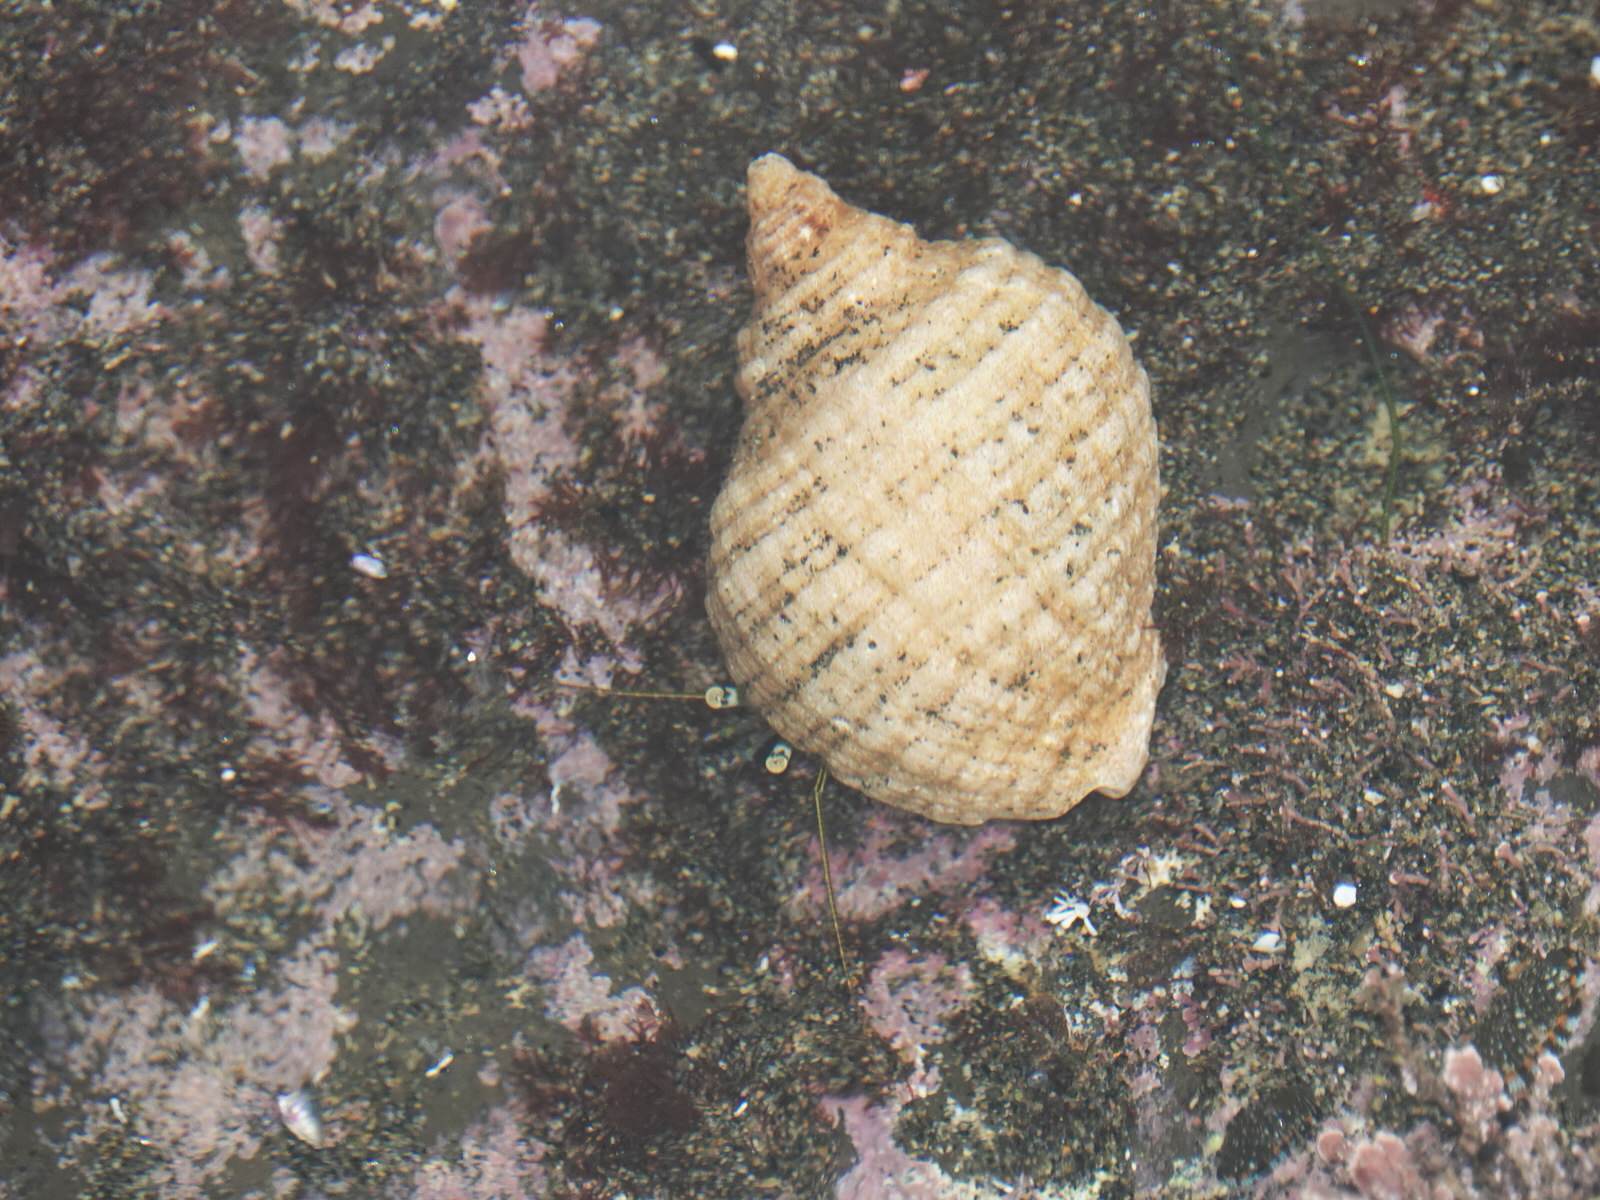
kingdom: Animalia
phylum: Arthropoda
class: Malacostraca
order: Decapoda
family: Paguridae
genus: Pagurus
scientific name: Pagurus novizealandiae
